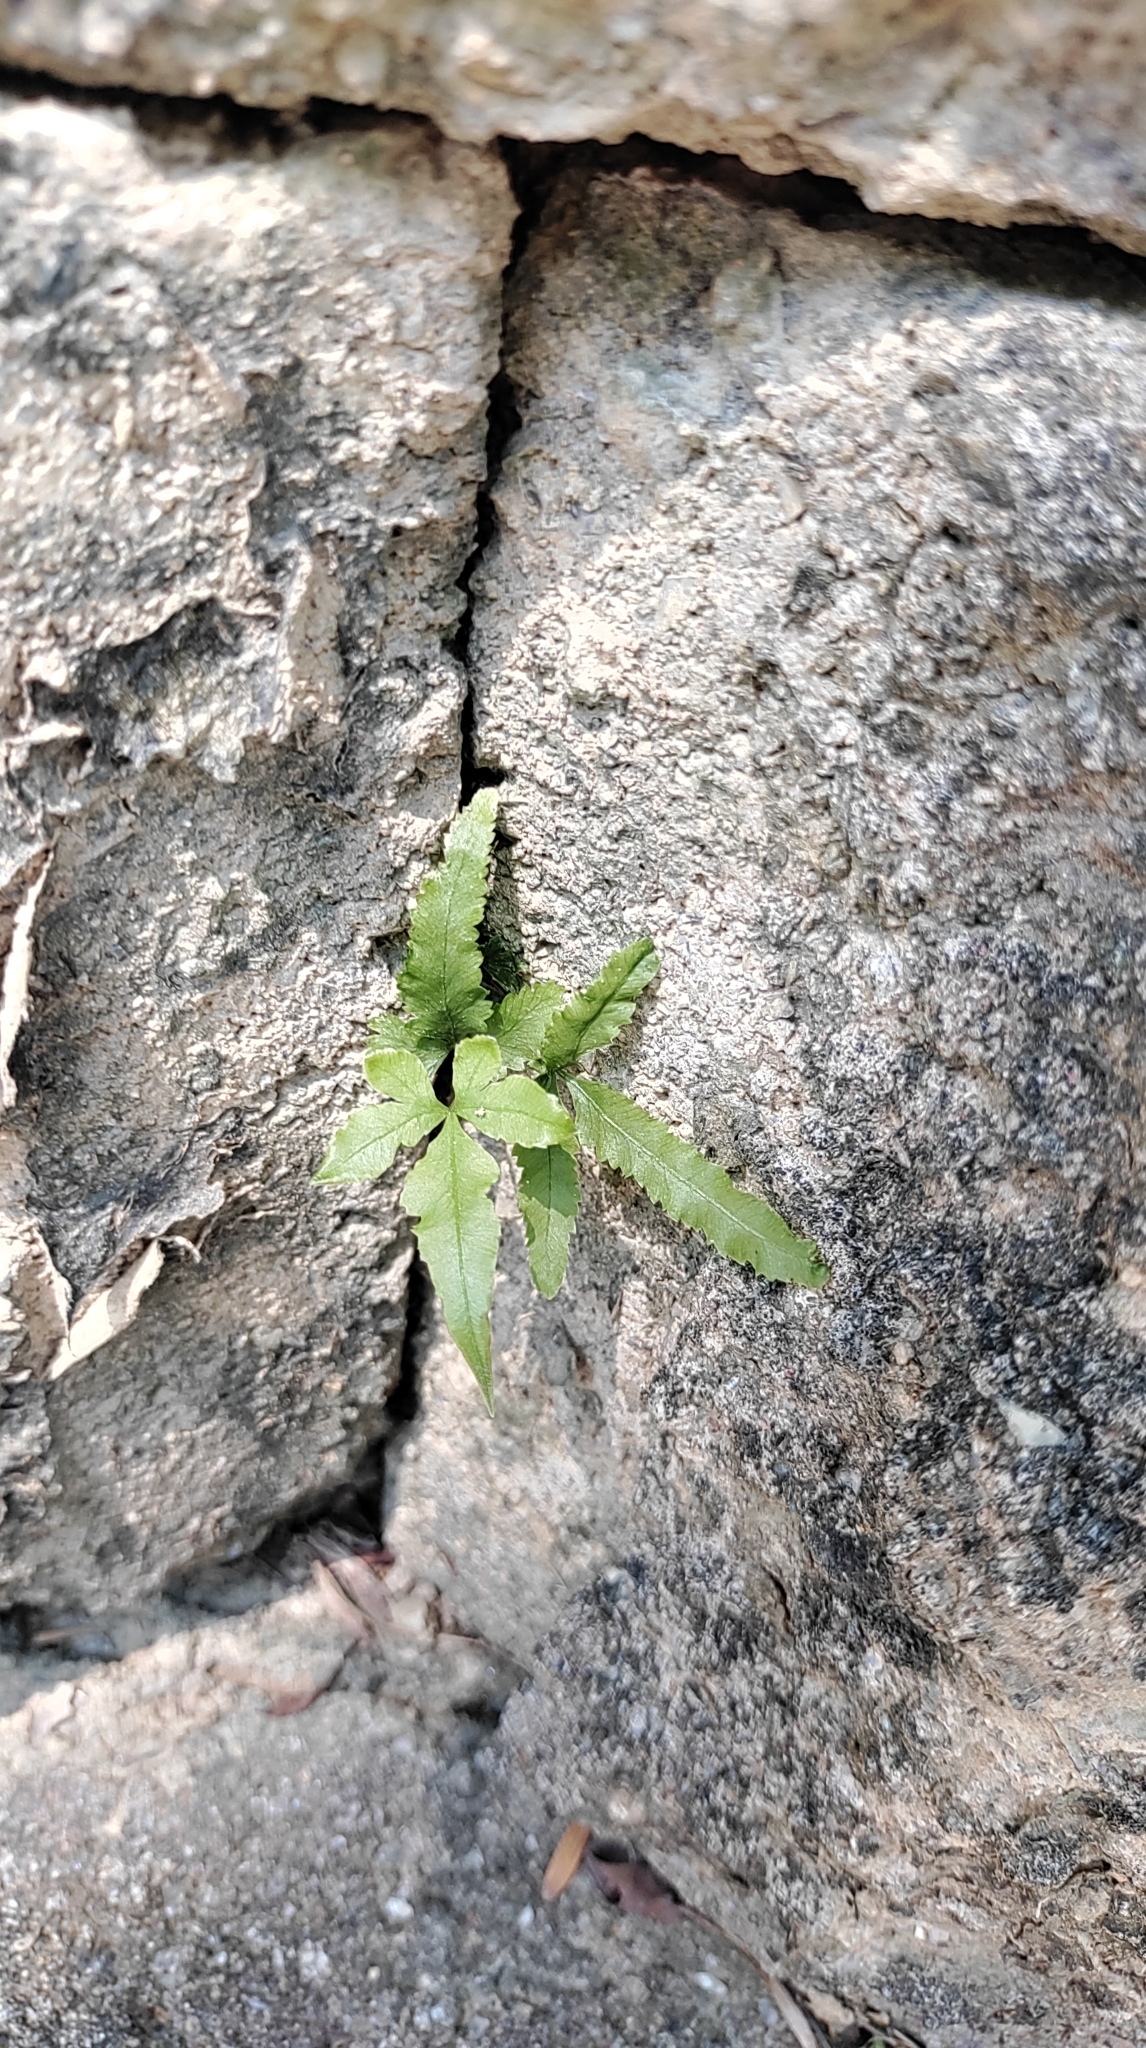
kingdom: Plantae
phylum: Tracheophyta
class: Polypodiopsida
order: Polypodiales
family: Pteridaceae
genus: Pteris
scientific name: Pteris multifida
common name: Spider brake
